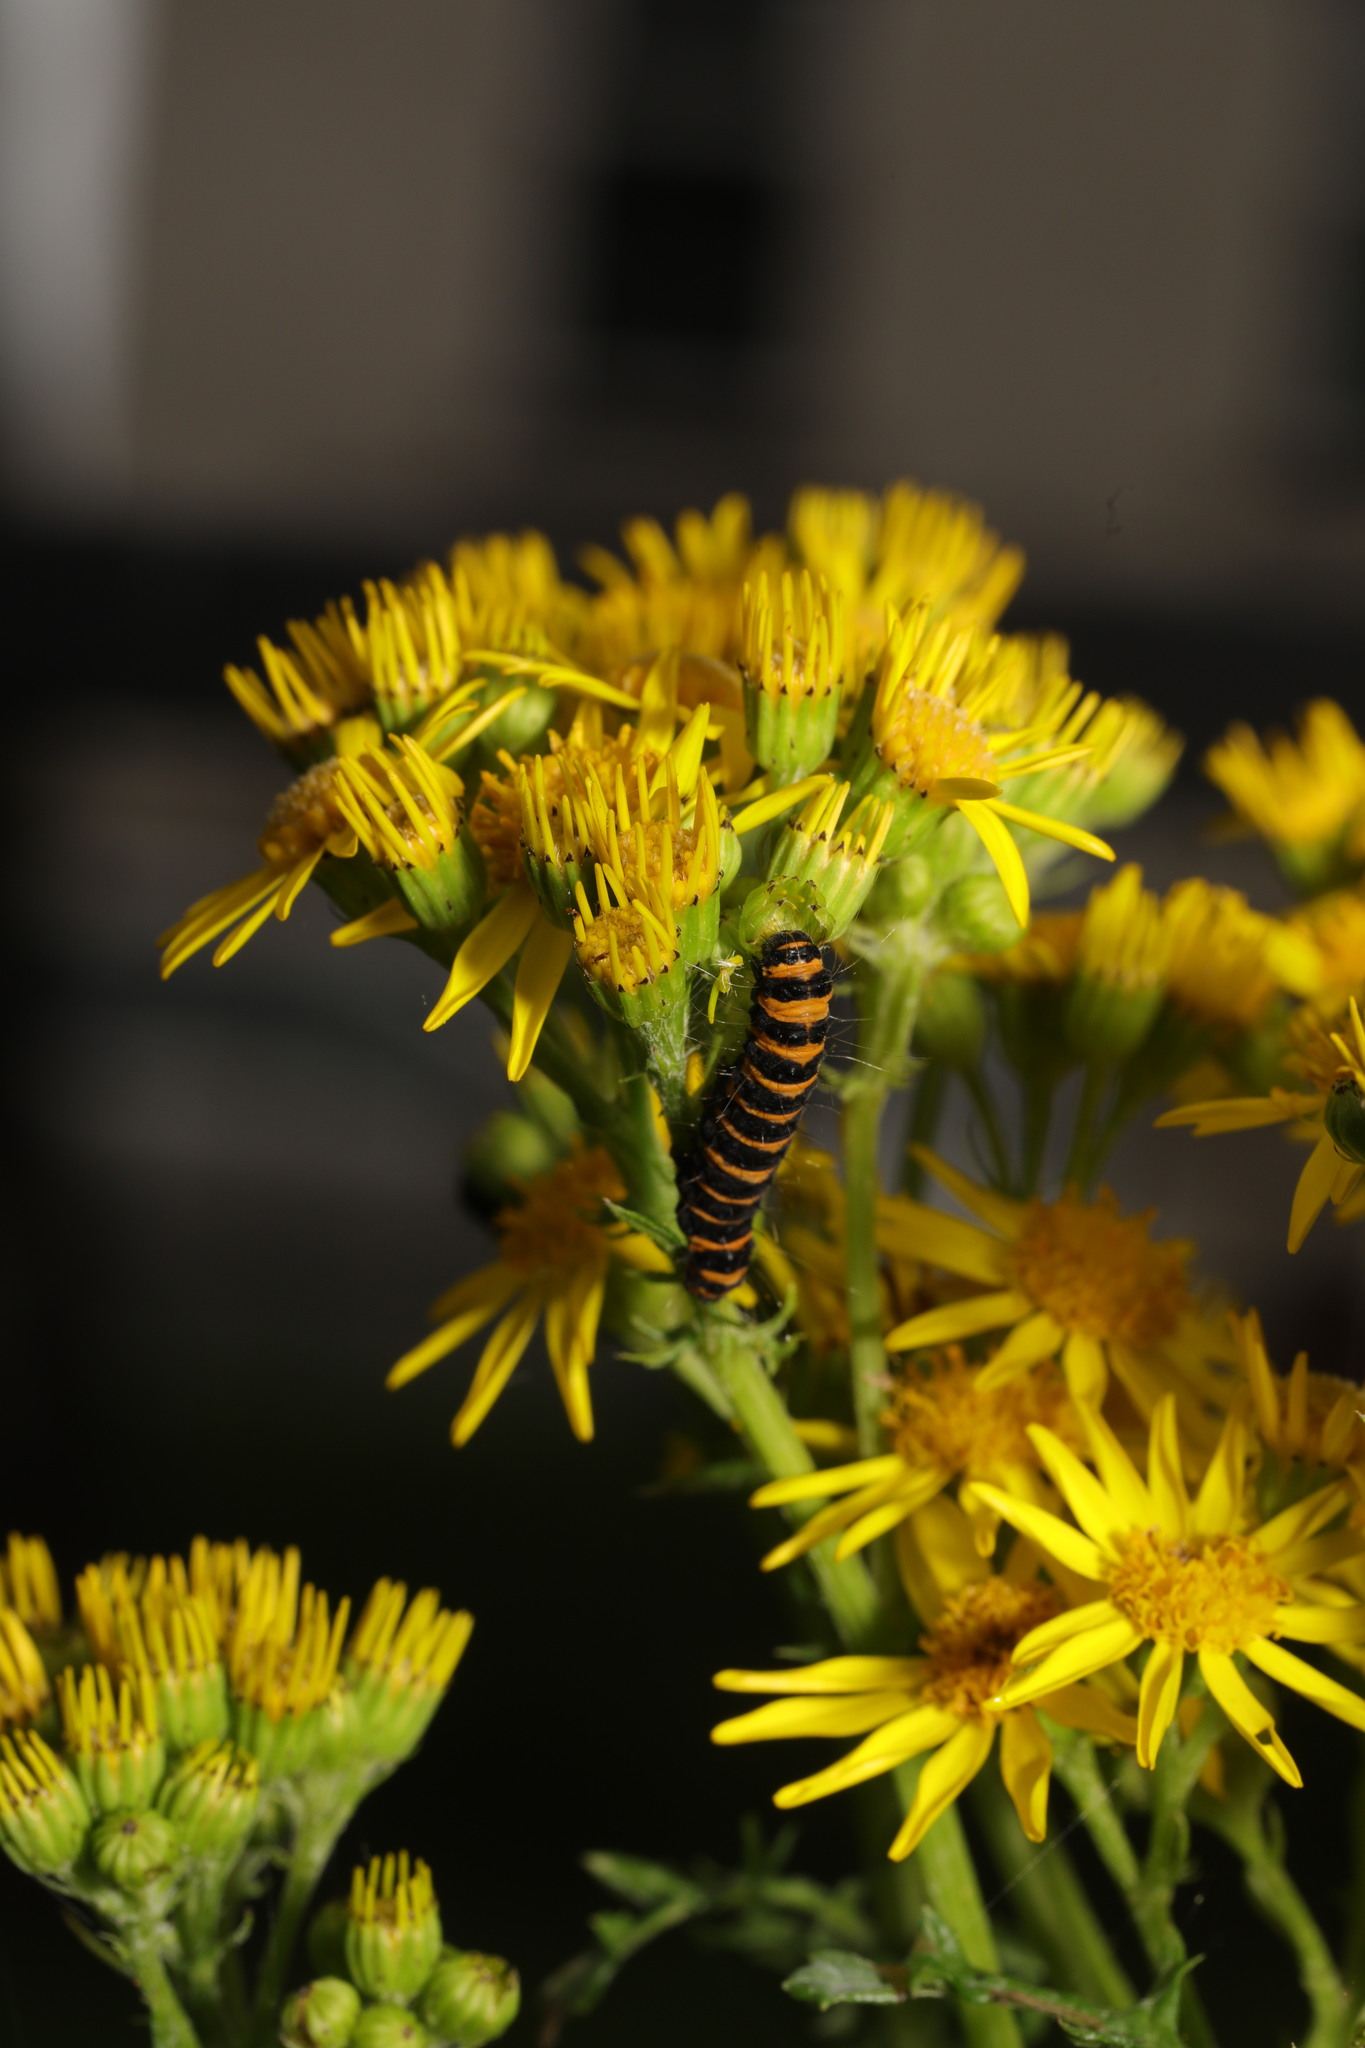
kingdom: Animalia
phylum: Arthropoda
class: Insecta
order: Lepidoptera
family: Erebidae
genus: Tyria
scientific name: Tyria jacobaeae
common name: Cinnabar
